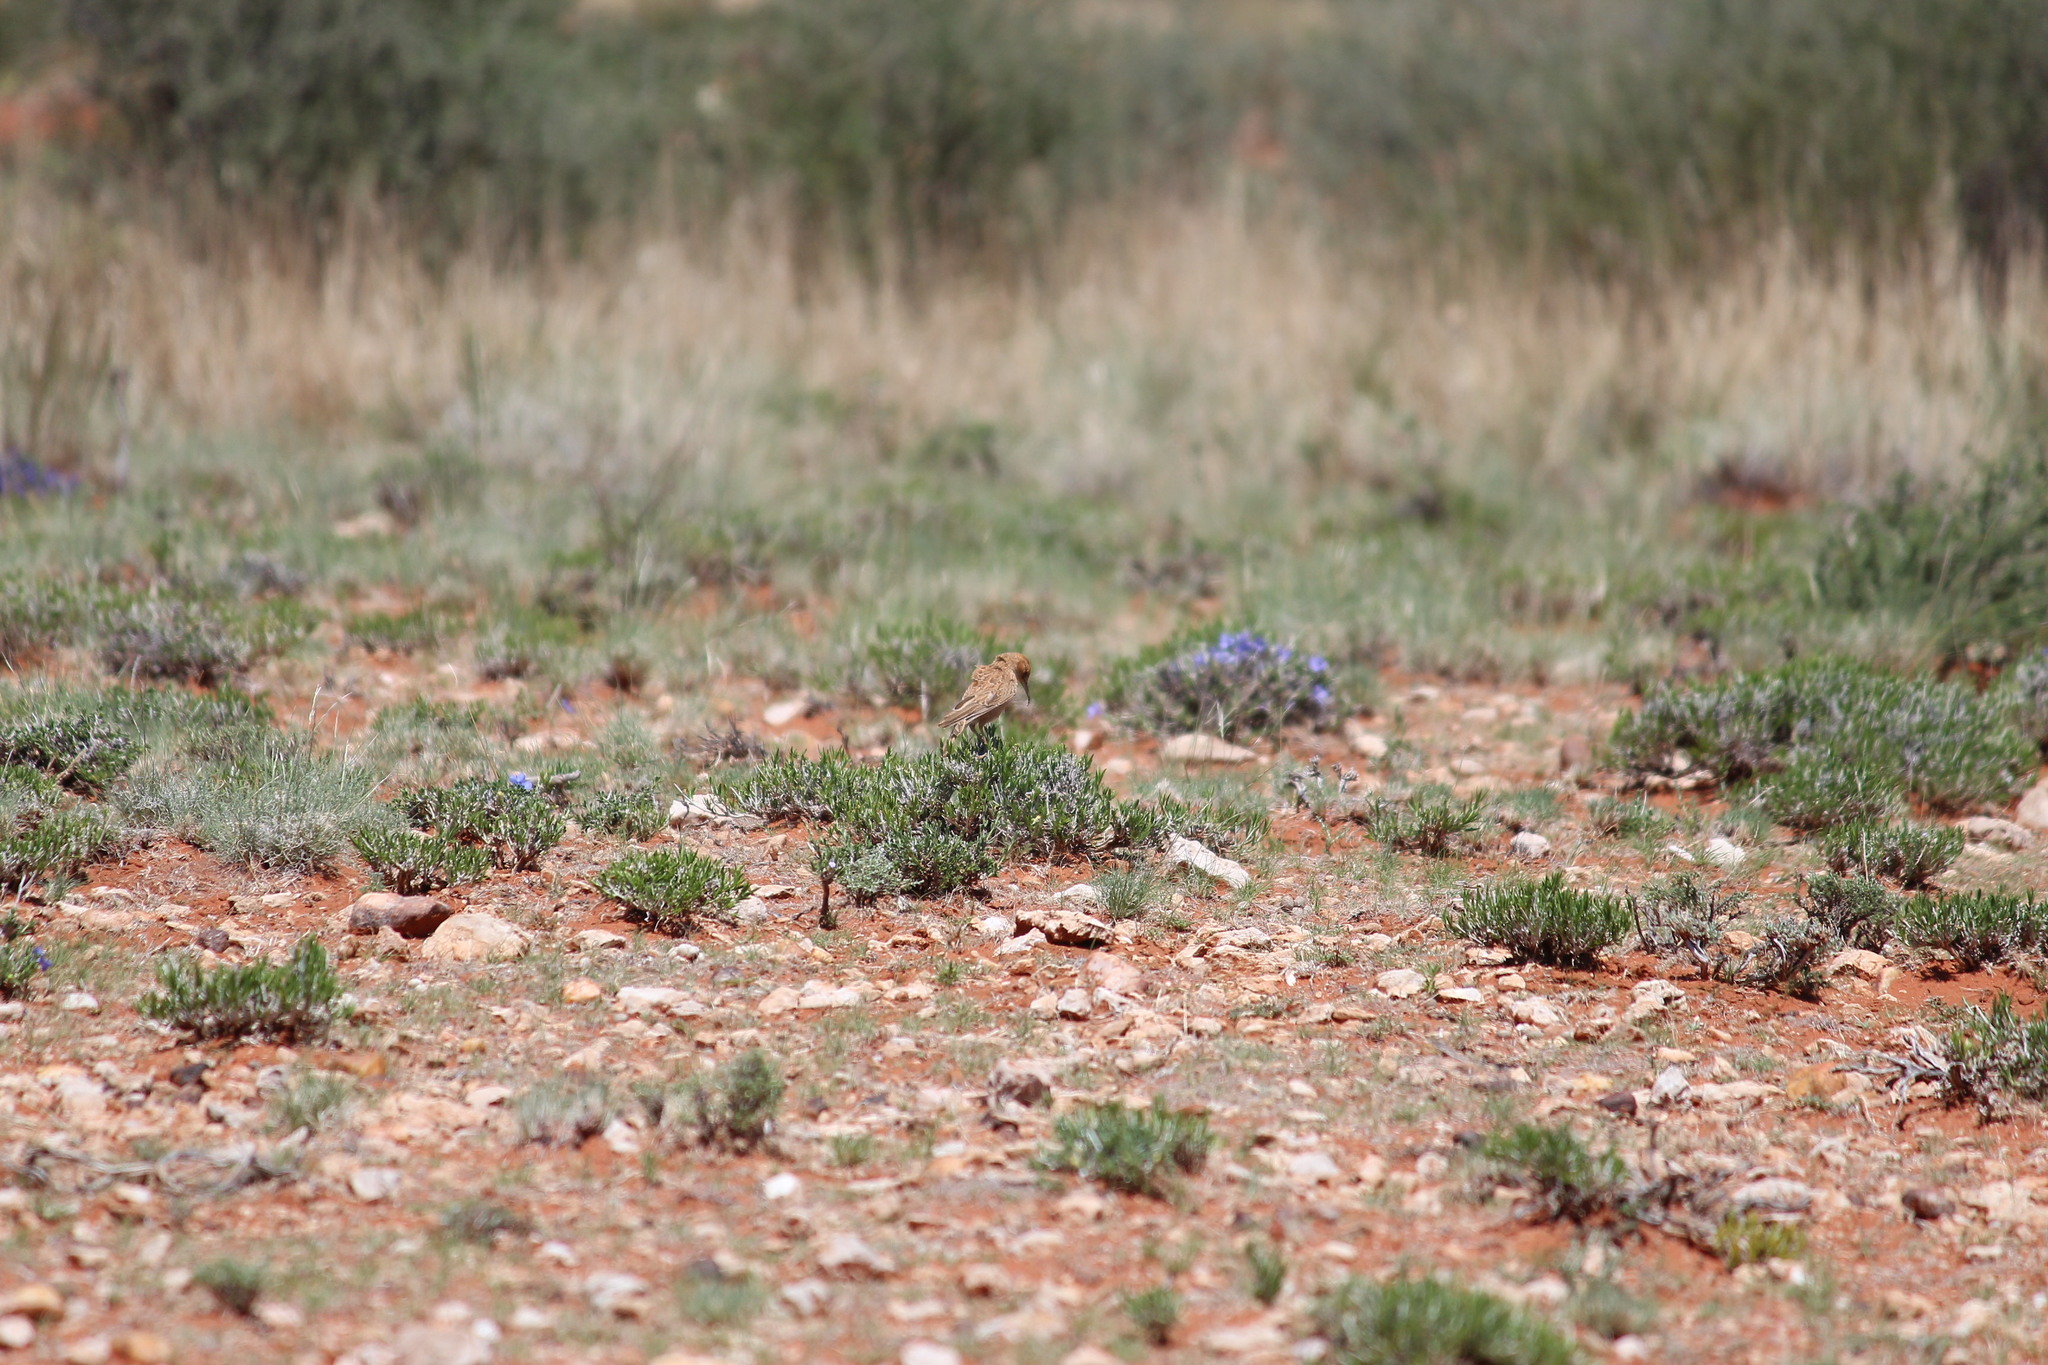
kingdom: Animalia
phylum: Chordata
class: Aves
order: Passeriformes
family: Alaudidae
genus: Chersomanes
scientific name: Chersomanes albofasciata
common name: Spike-heeled lark
